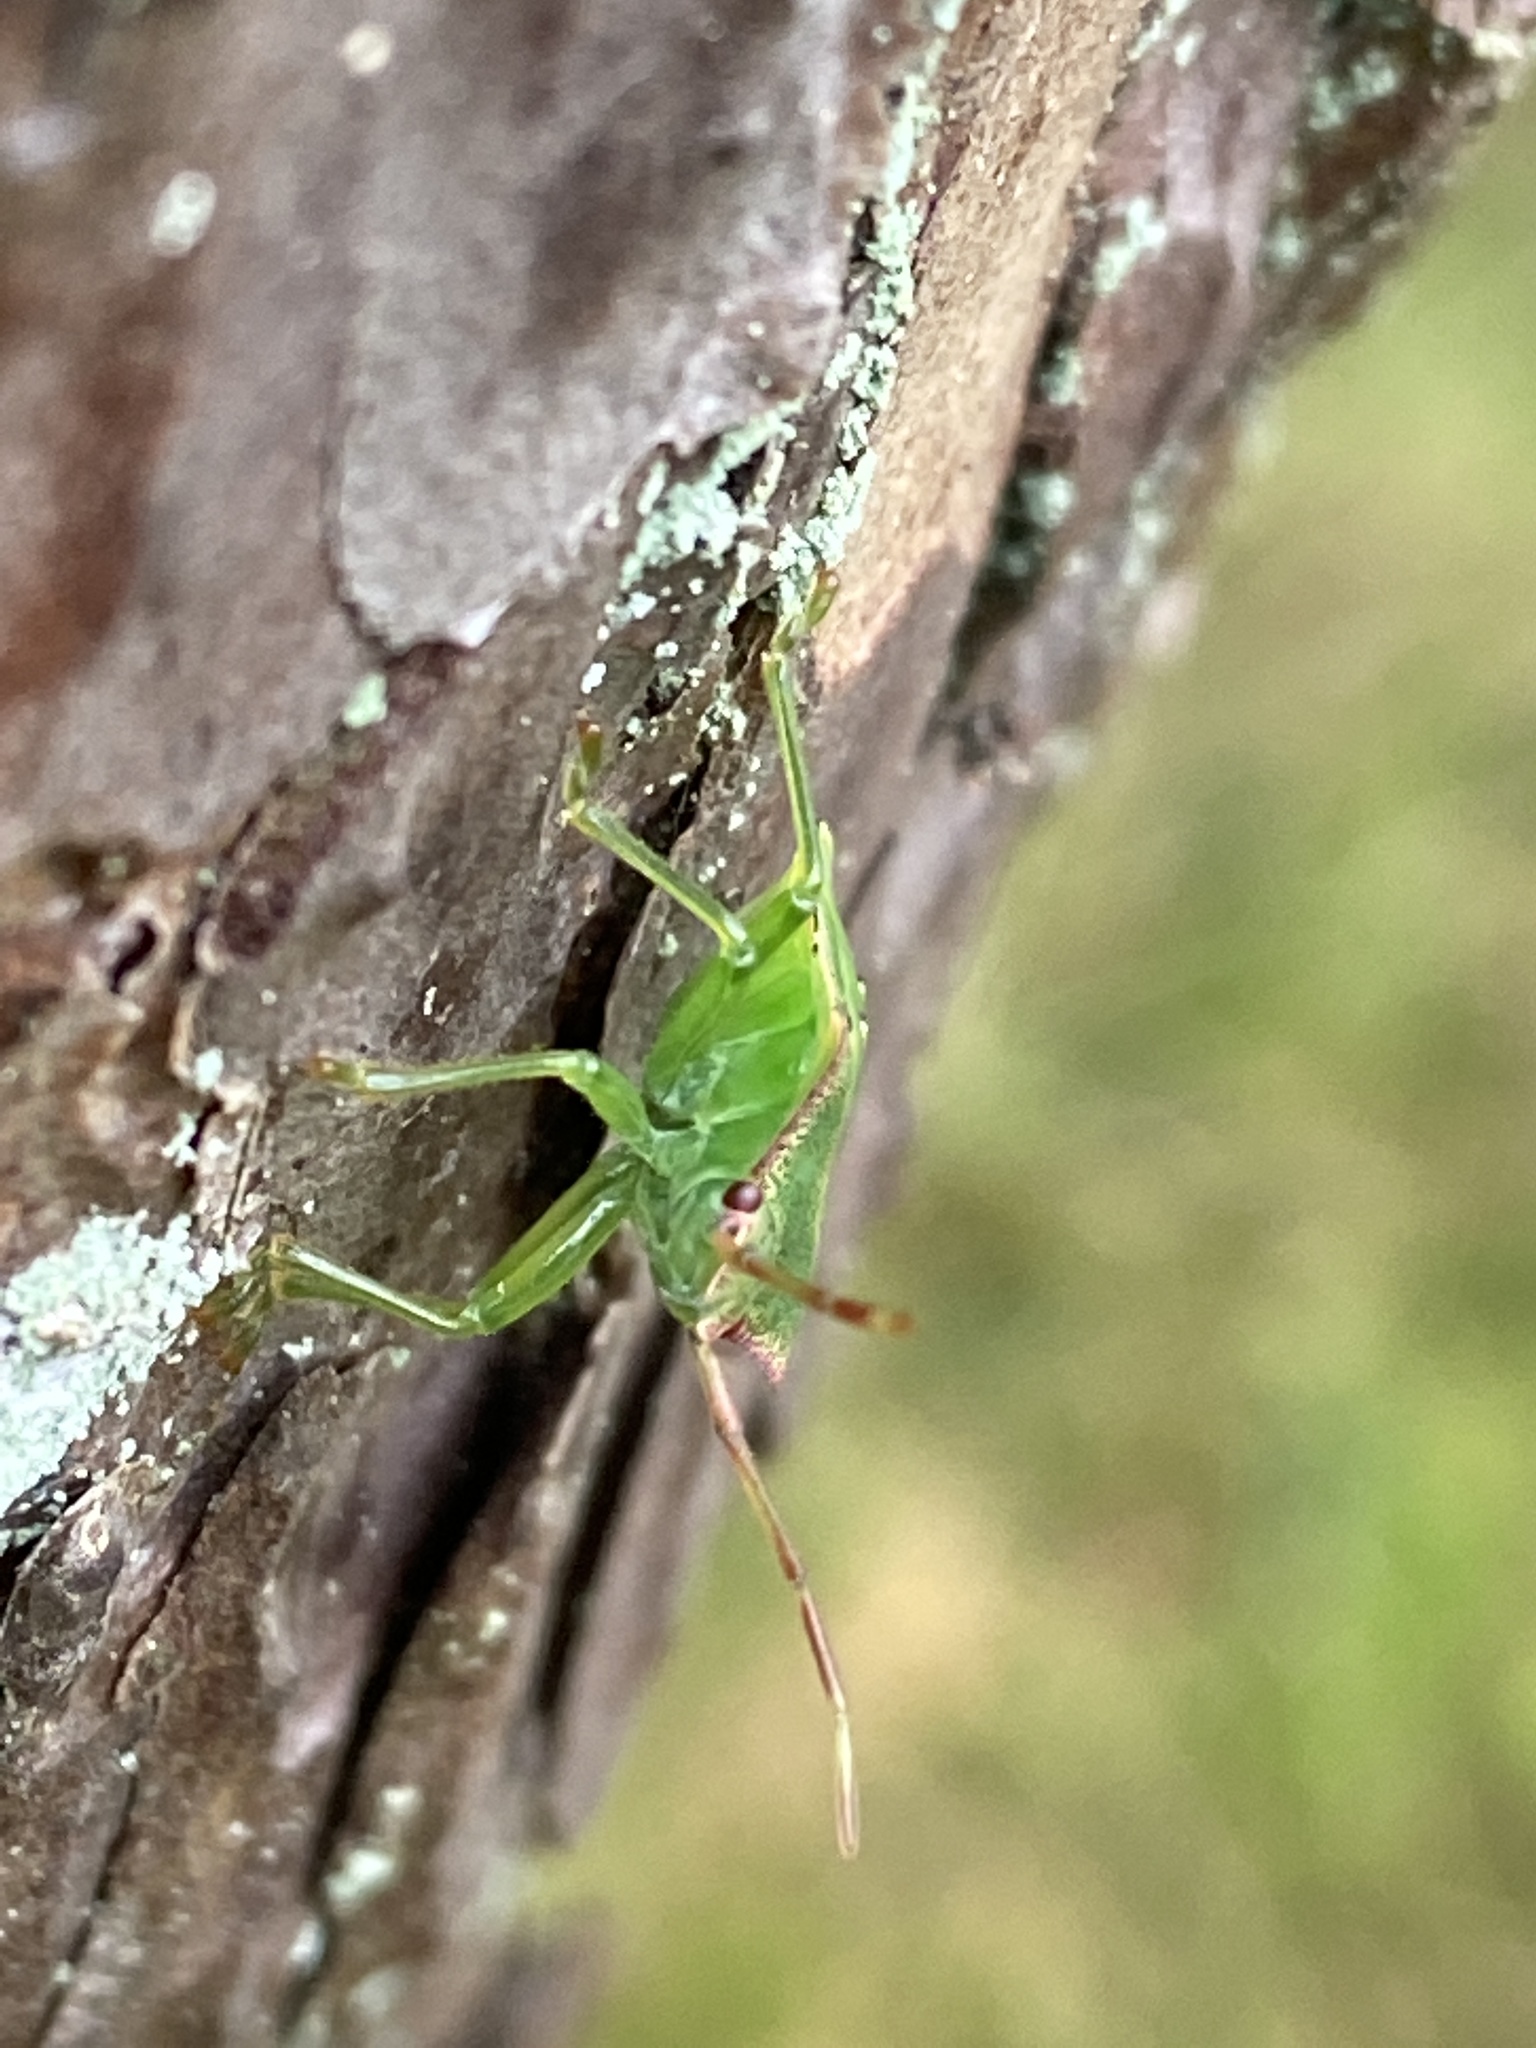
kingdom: Animalia
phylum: Arthropoda
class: Insecta
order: Hemiptera
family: Acanthosomatidae
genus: Acanthosoma
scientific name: Acanthosoma haemorrhoidale
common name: Hawthorn shieldbug
